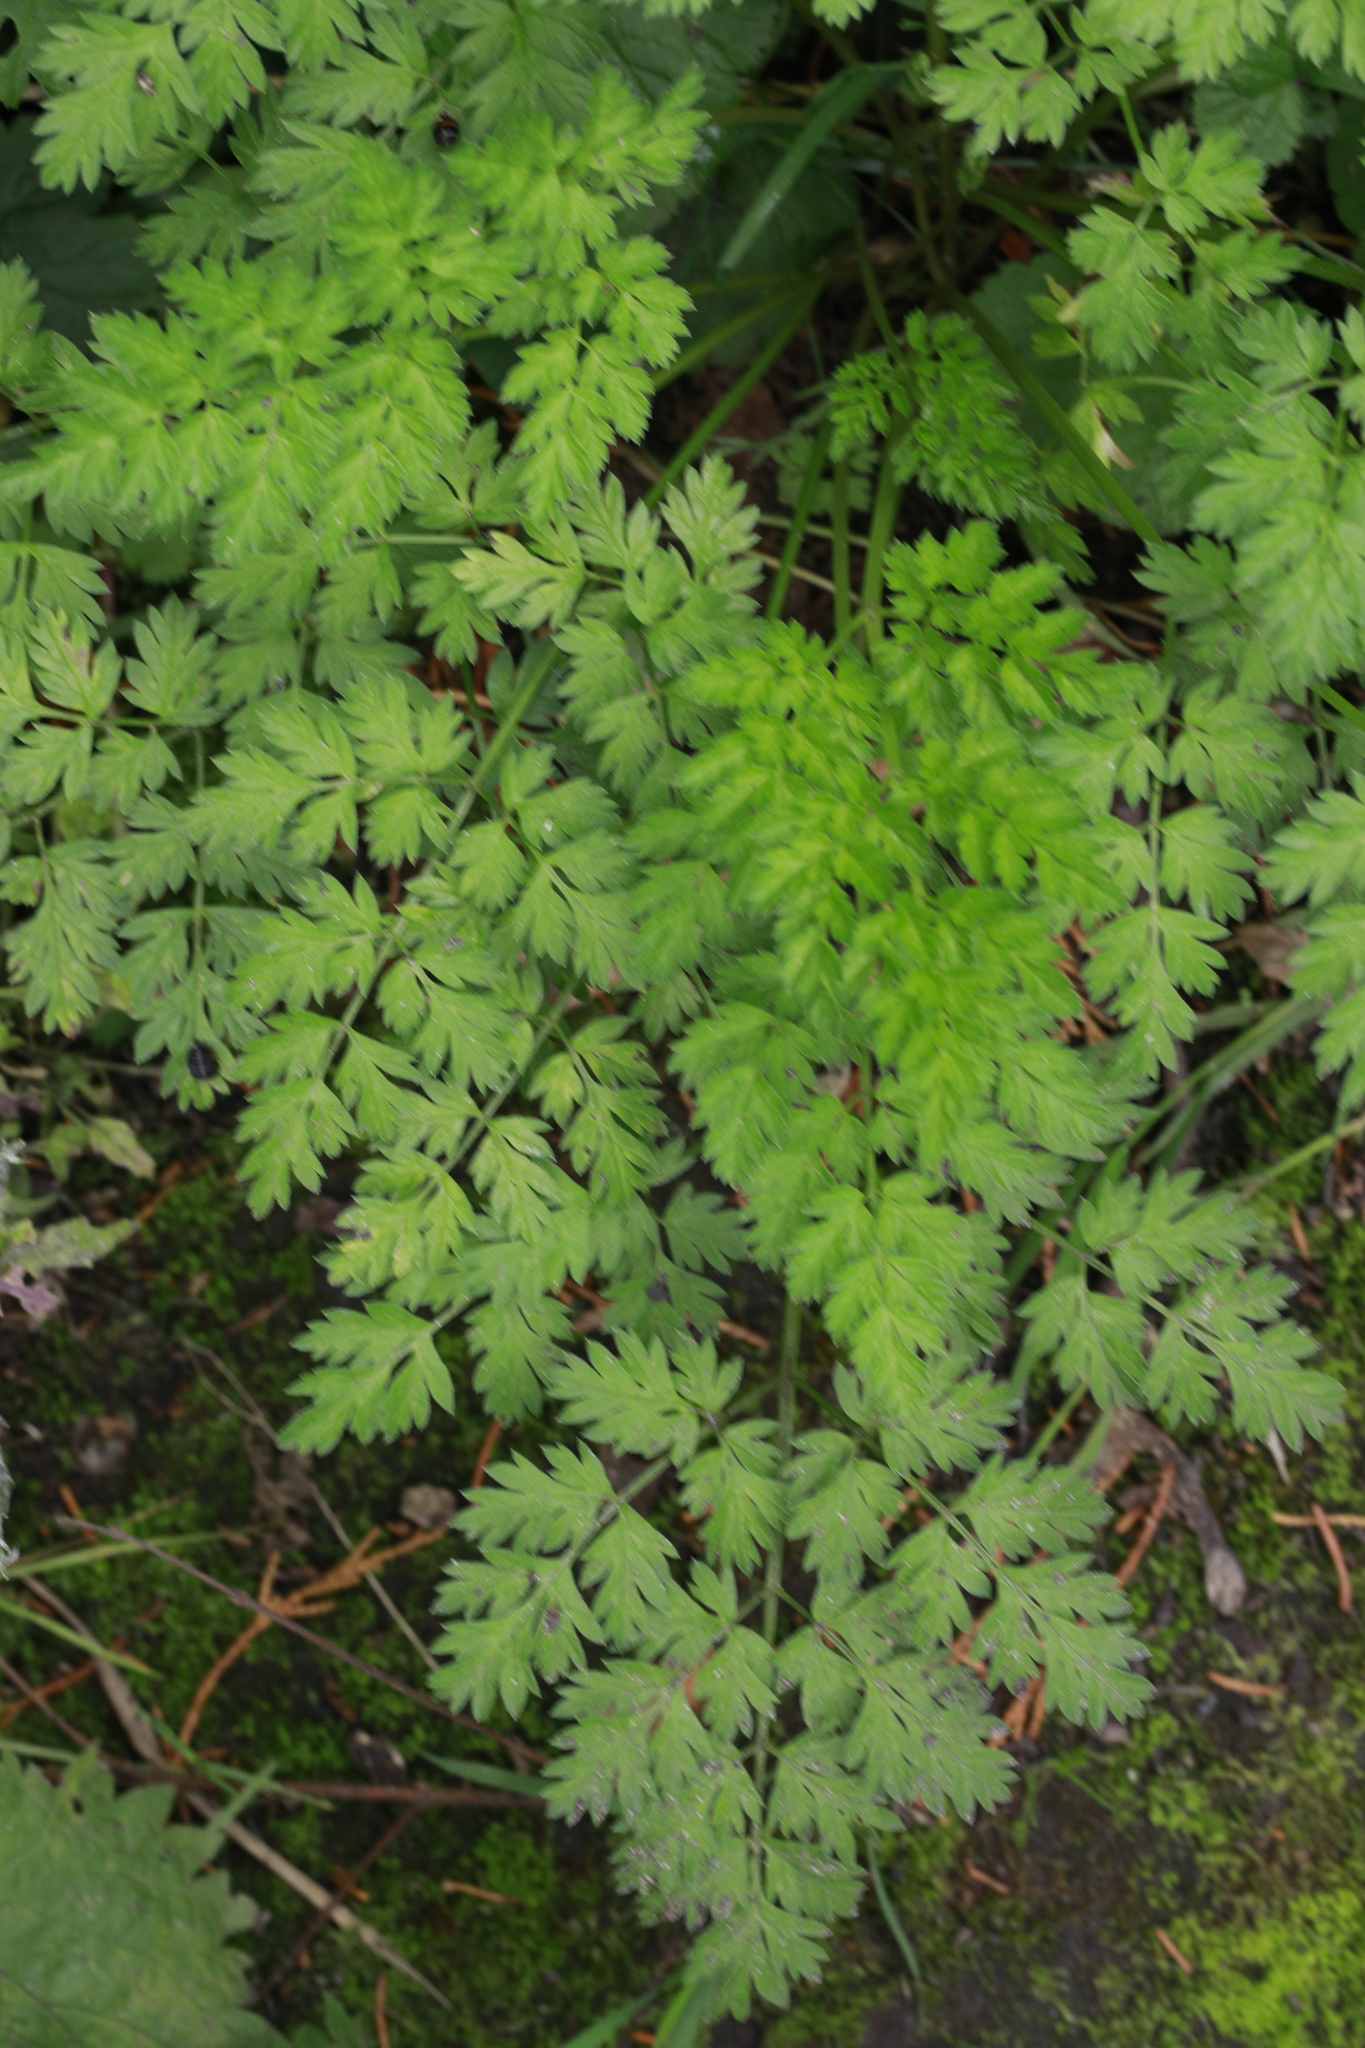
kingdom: Plantae
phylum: Tracheophyta
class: Magnoliopsida
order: Apiales
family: Apiaceae
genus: Anthriscus
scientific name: Anthriscus sylvestris
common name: Cow parsley
